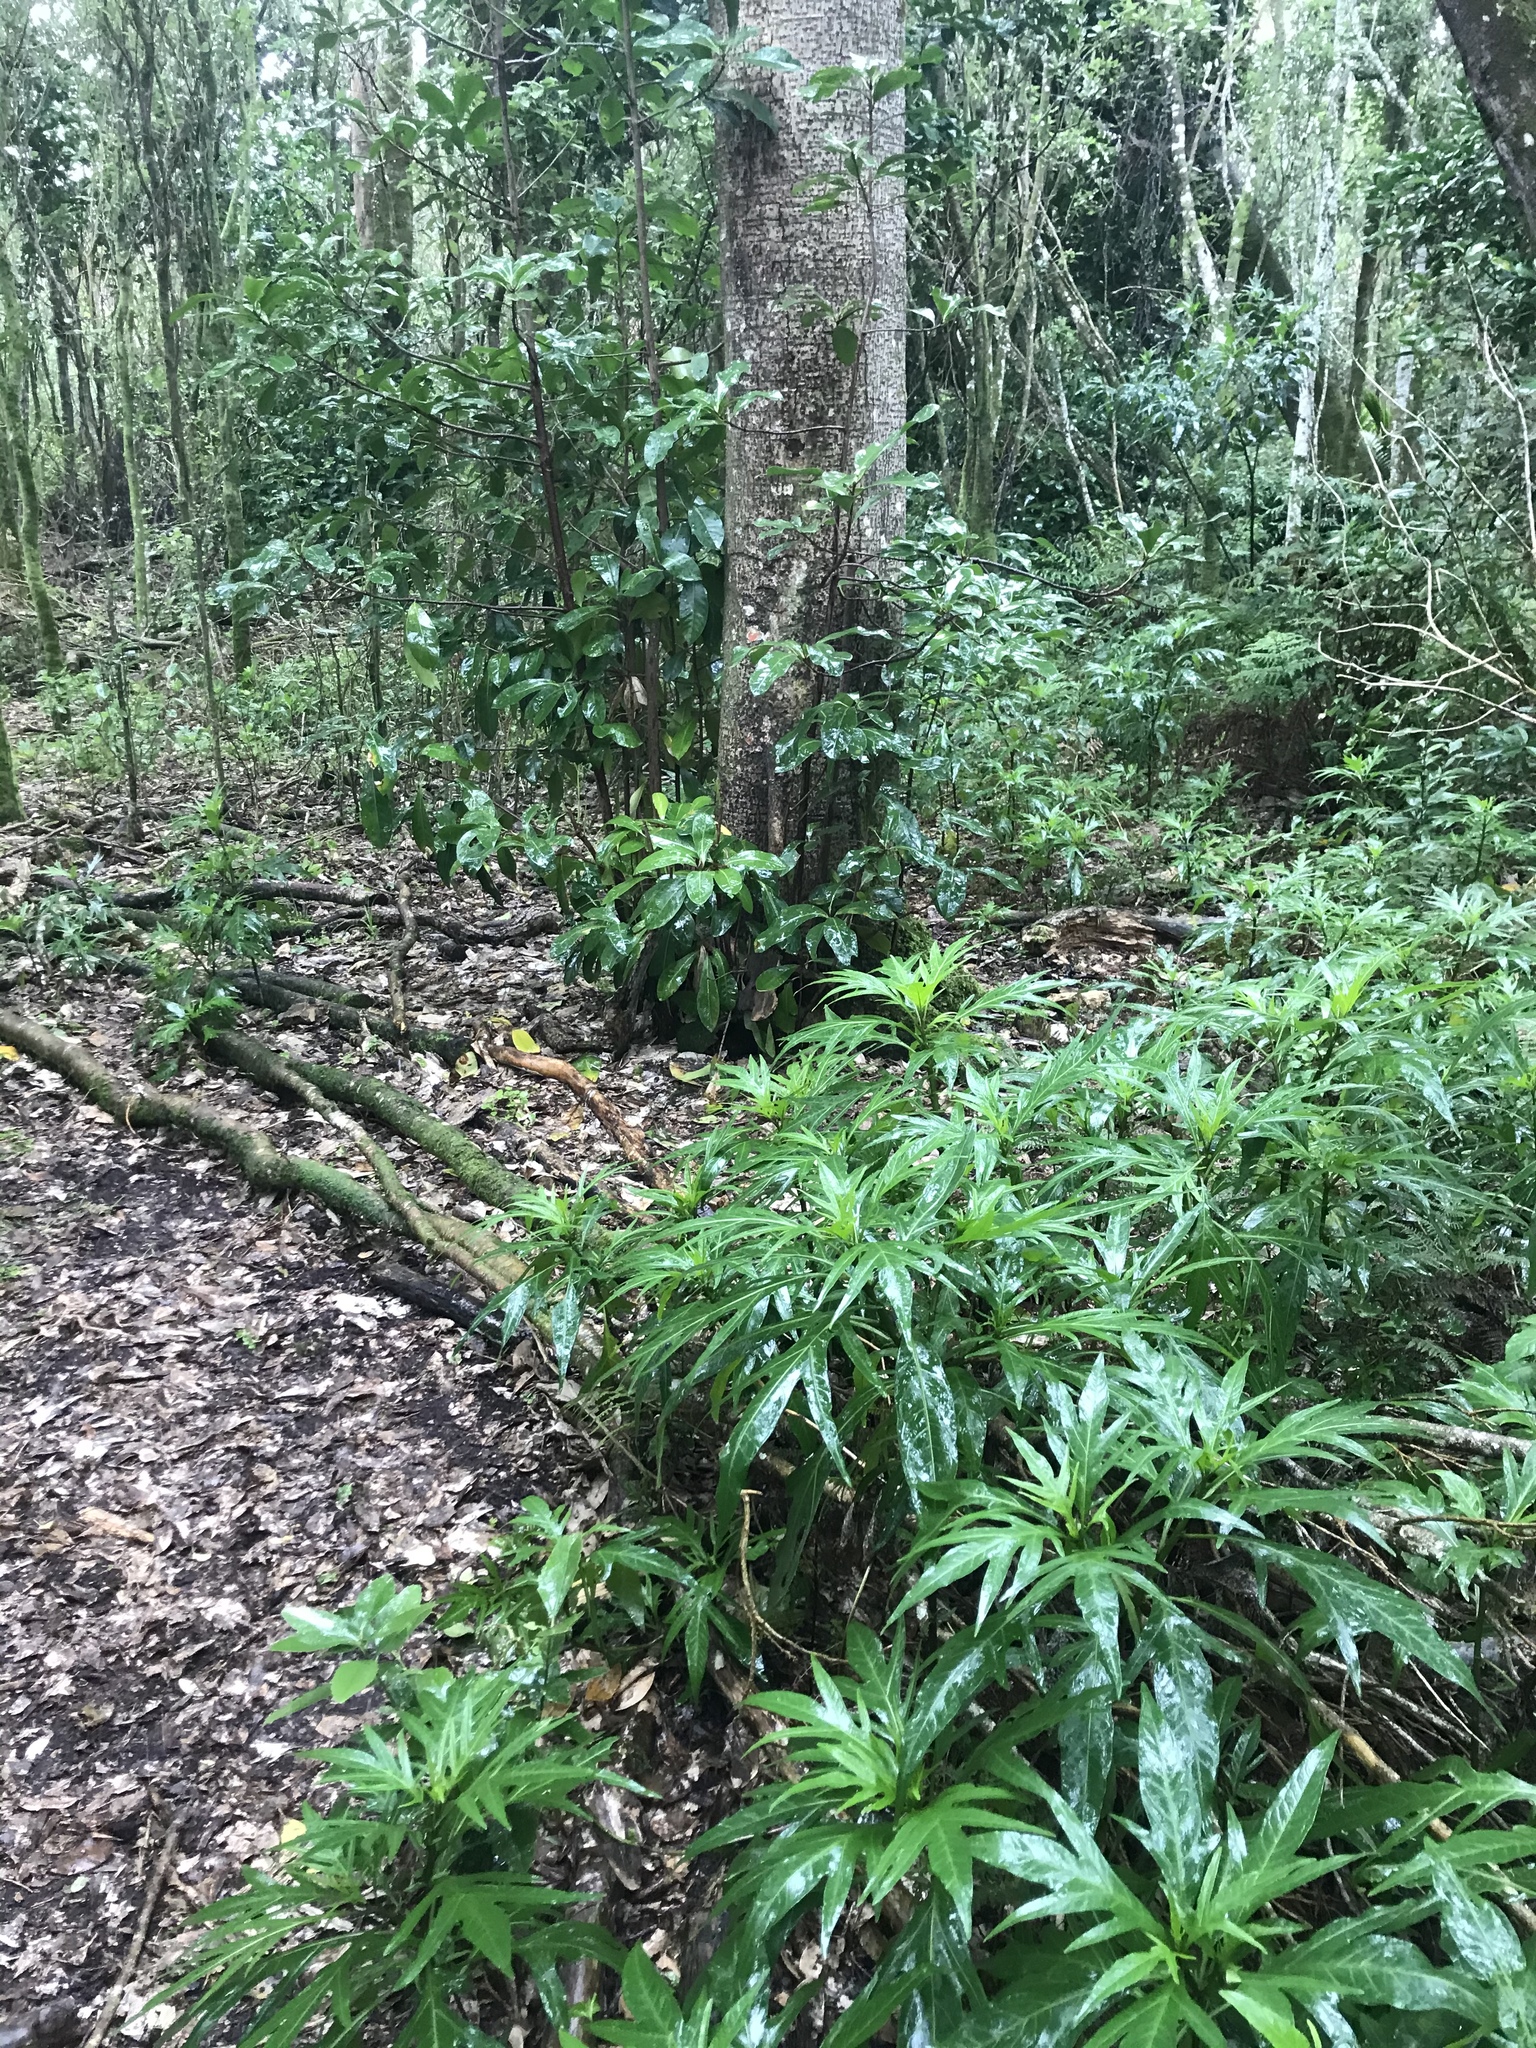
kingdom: Plantae
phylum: Tracheophyta
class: Magnoliopsida
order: Solanales
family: Solanaceae
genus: Solanum
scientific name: Solanum
